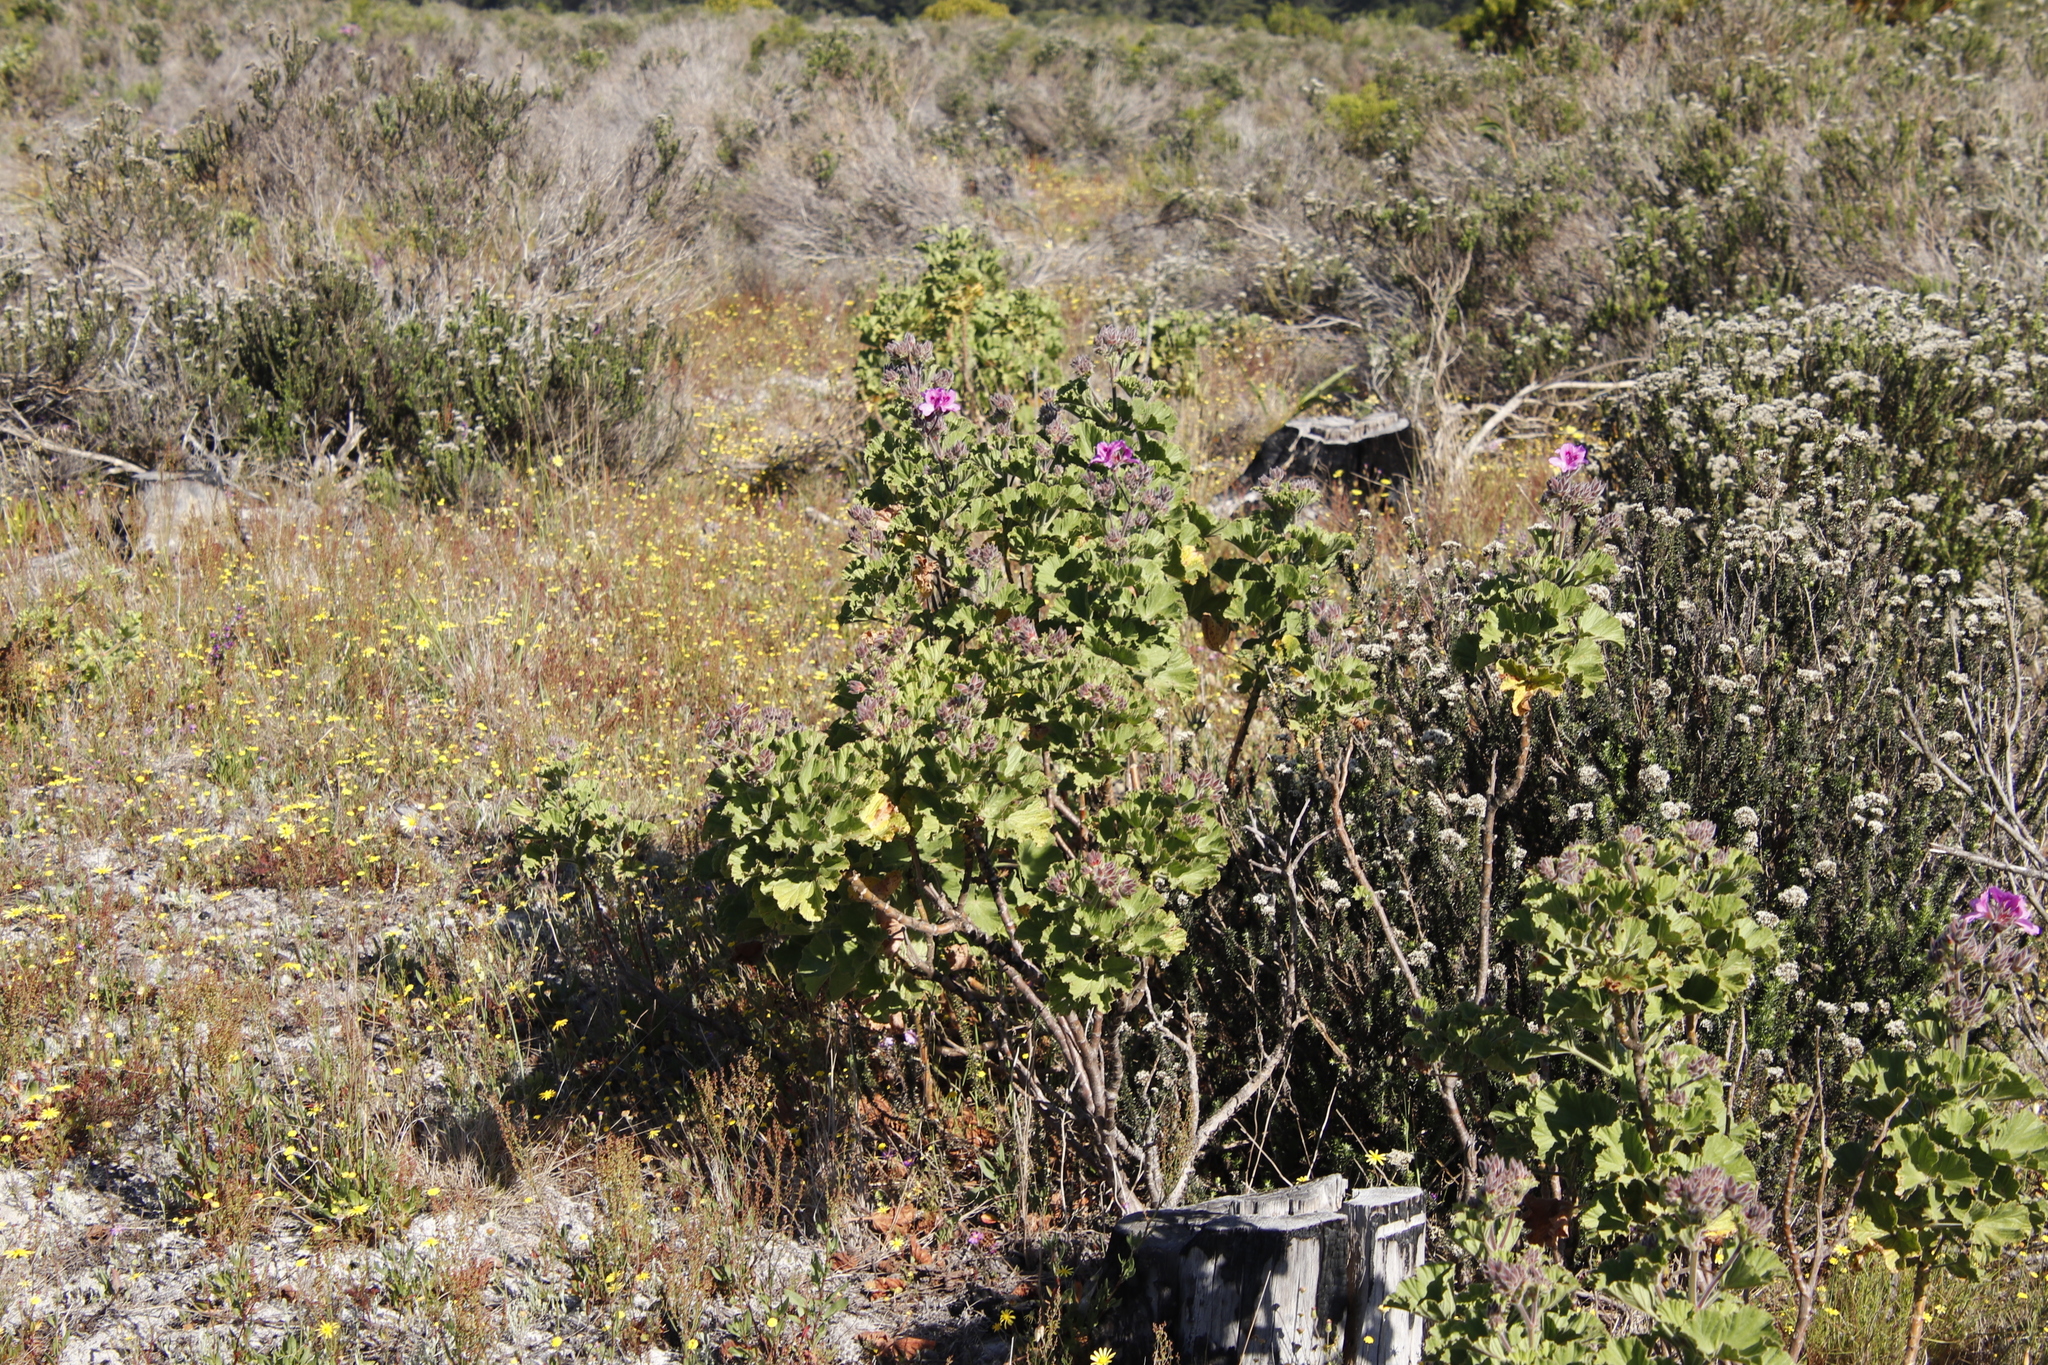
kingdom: Plantae
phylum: Tracheophyta
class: Magnoliopsida
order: Geraniales
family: Geraniaceae
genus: Pelargonium
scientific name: Pelargonium cucullatum
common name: Tree pelargonium
